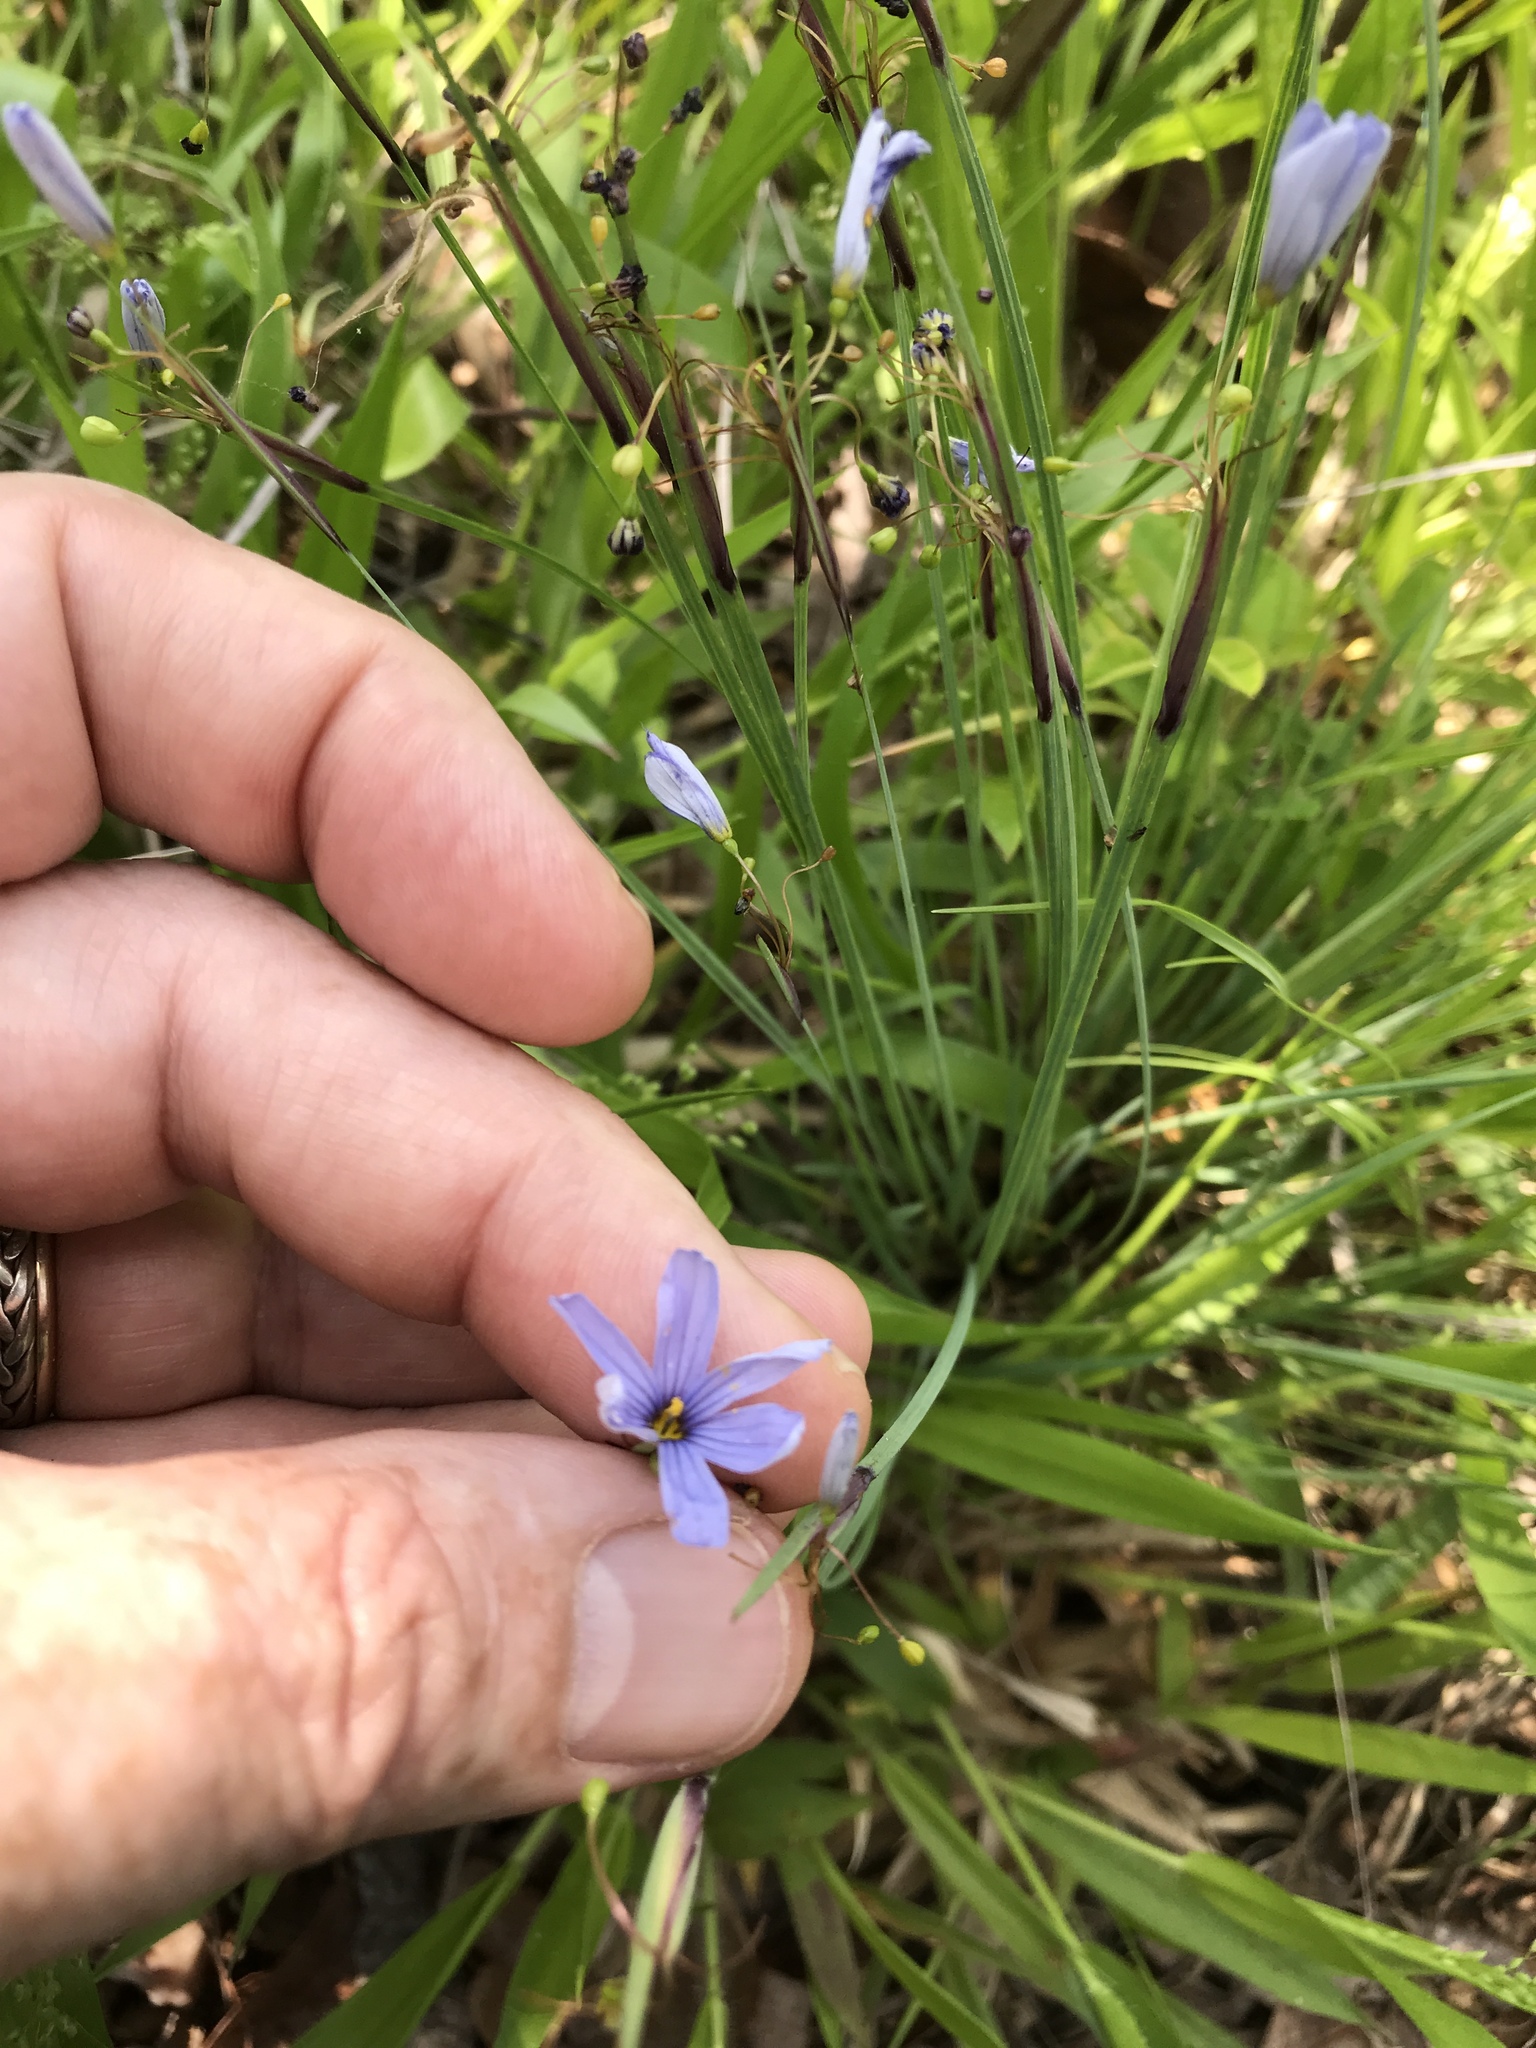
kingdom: Plantae
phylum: Tracheophyta
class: Liliopsida
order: Asparagales
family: Iridaceae
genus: Sisyrinchium
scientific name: Sisyrinchium mucronatum
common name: Eastern blue-eyed-grass
